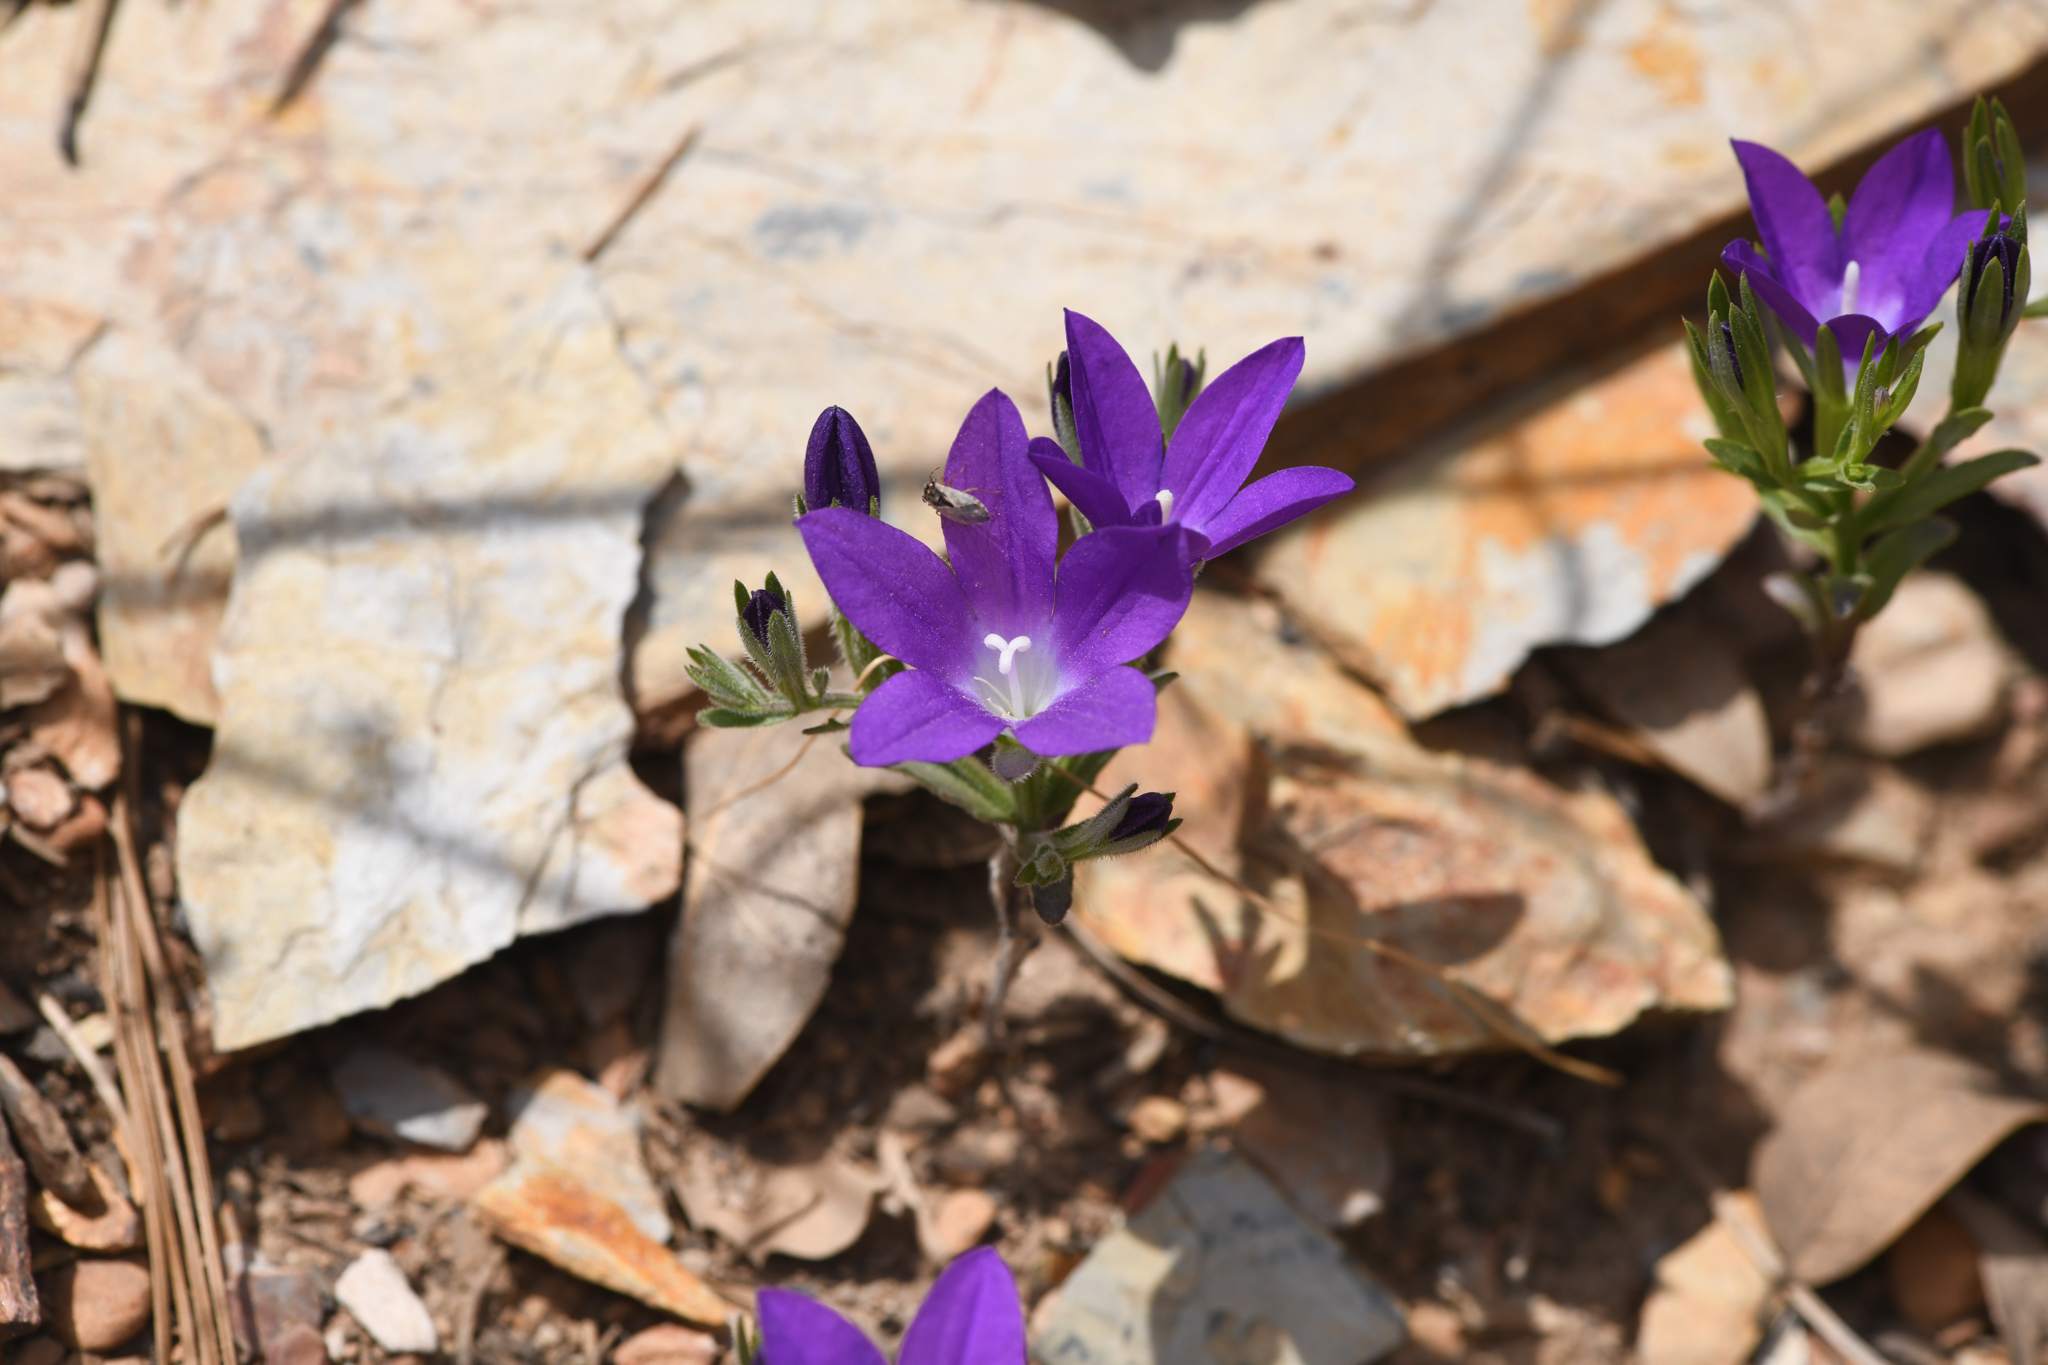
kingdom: Plantae
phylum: Tracheophyta
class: Magnoliopsida
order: Asterales
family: Campanulaceae
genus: Githopsis
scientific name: Githopsis pulchella
